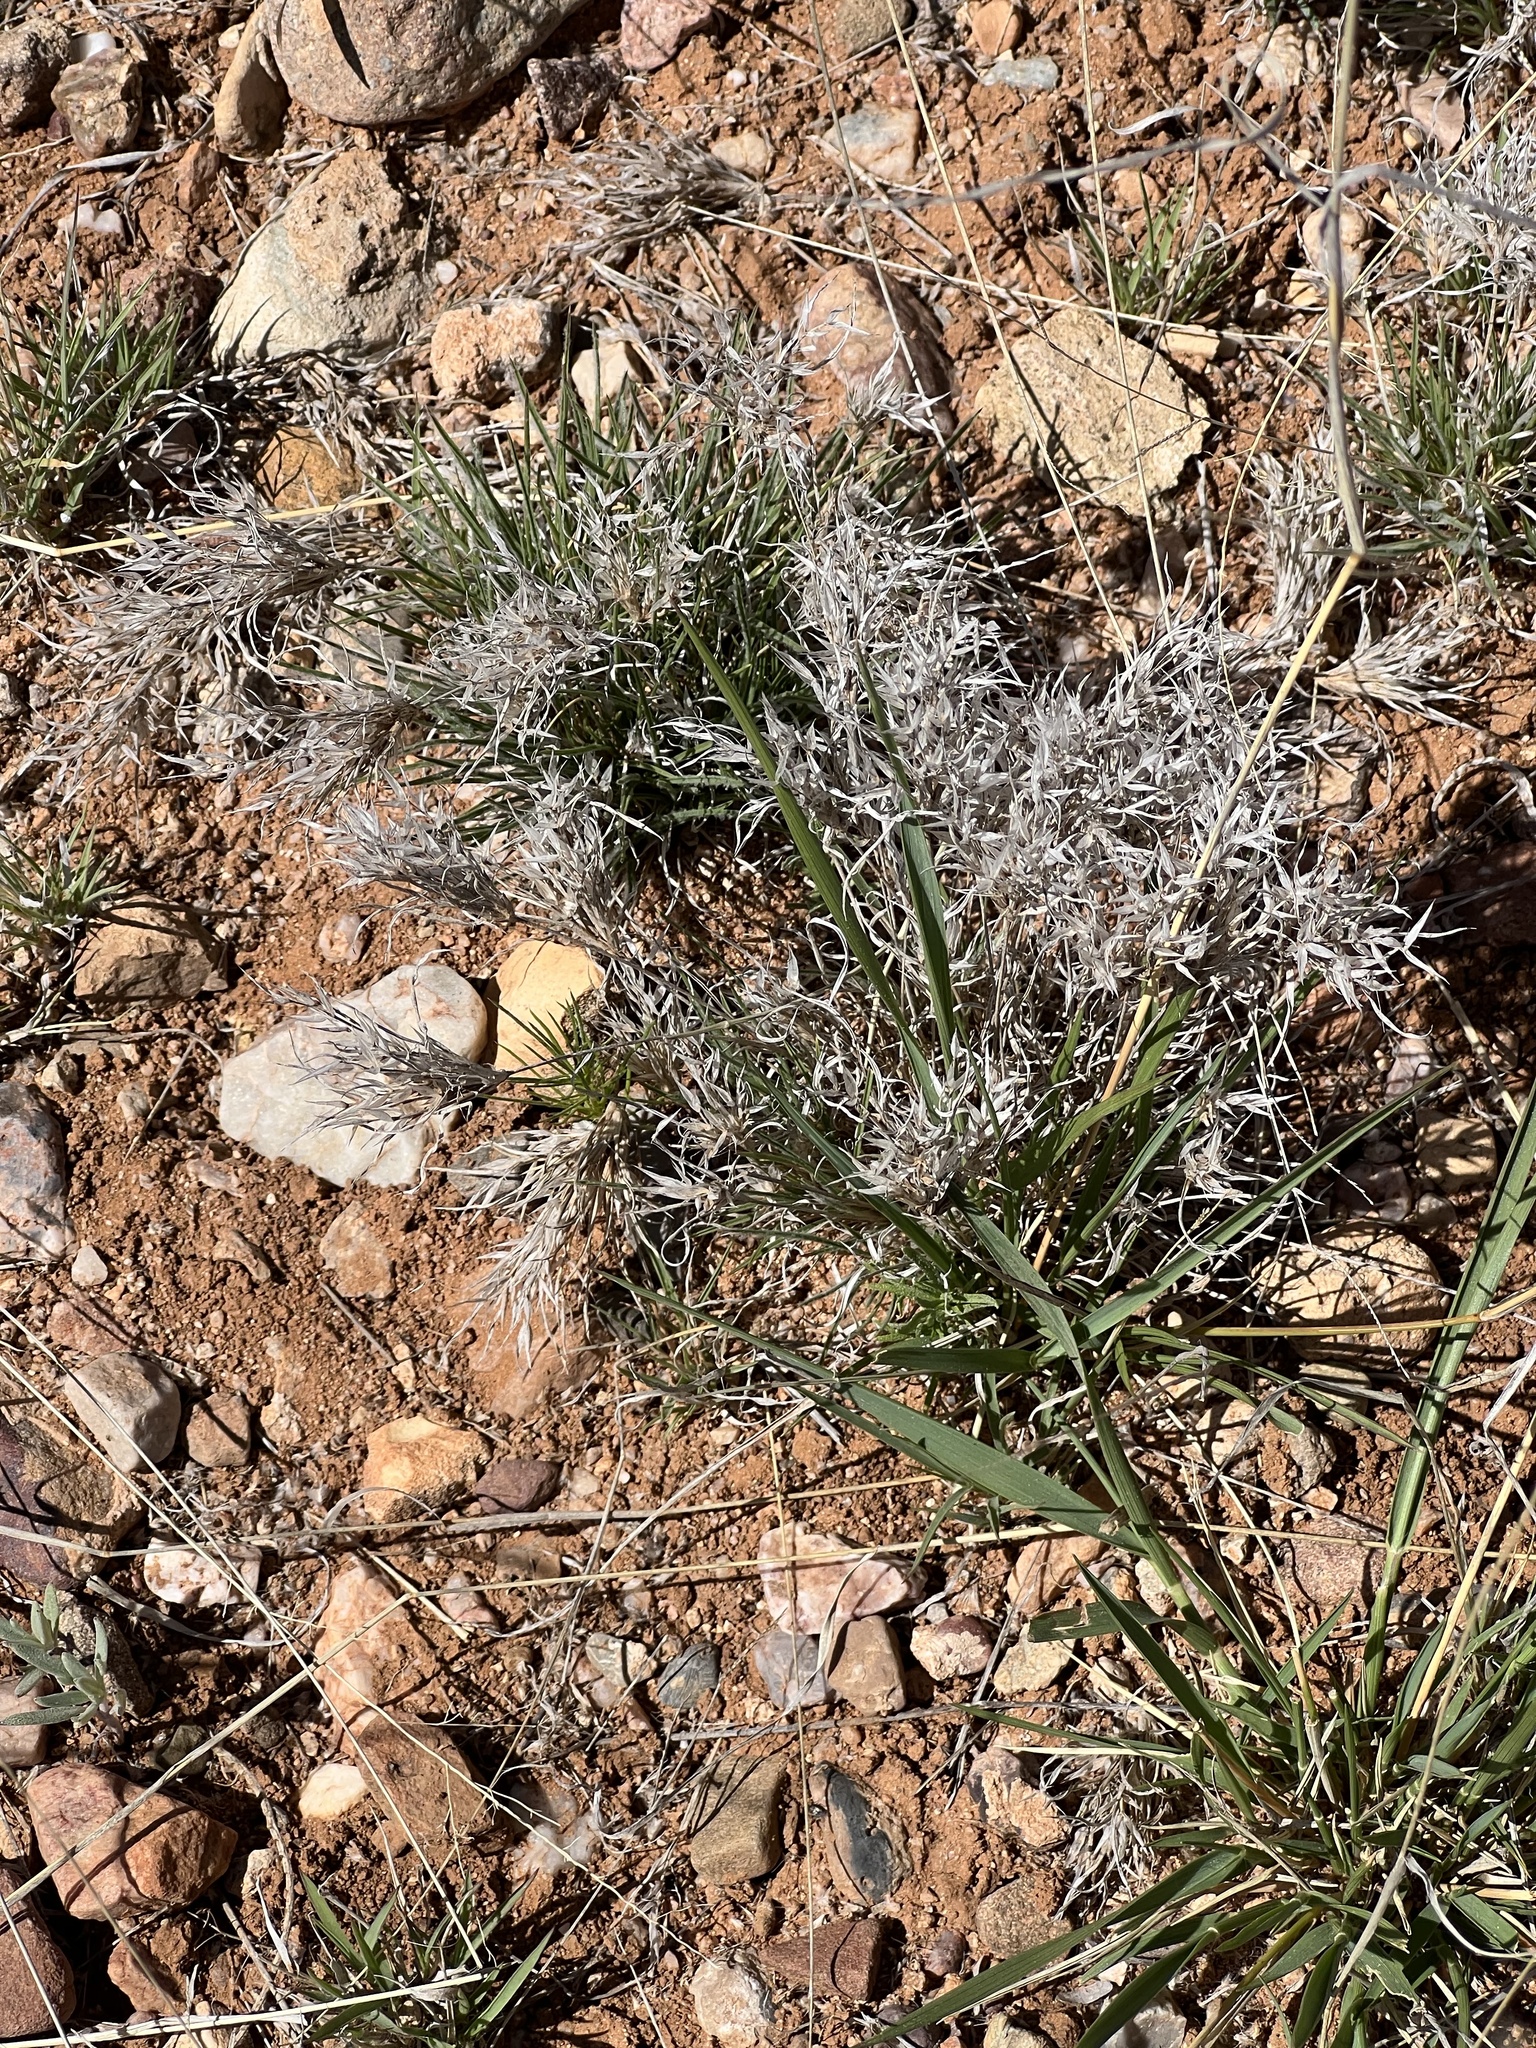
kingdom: Plantae
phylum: Tracheophyta
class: Liliopsida
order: Poales
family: Poaceae
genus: Dasyochloa
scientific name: Dasyochloa pulchella
